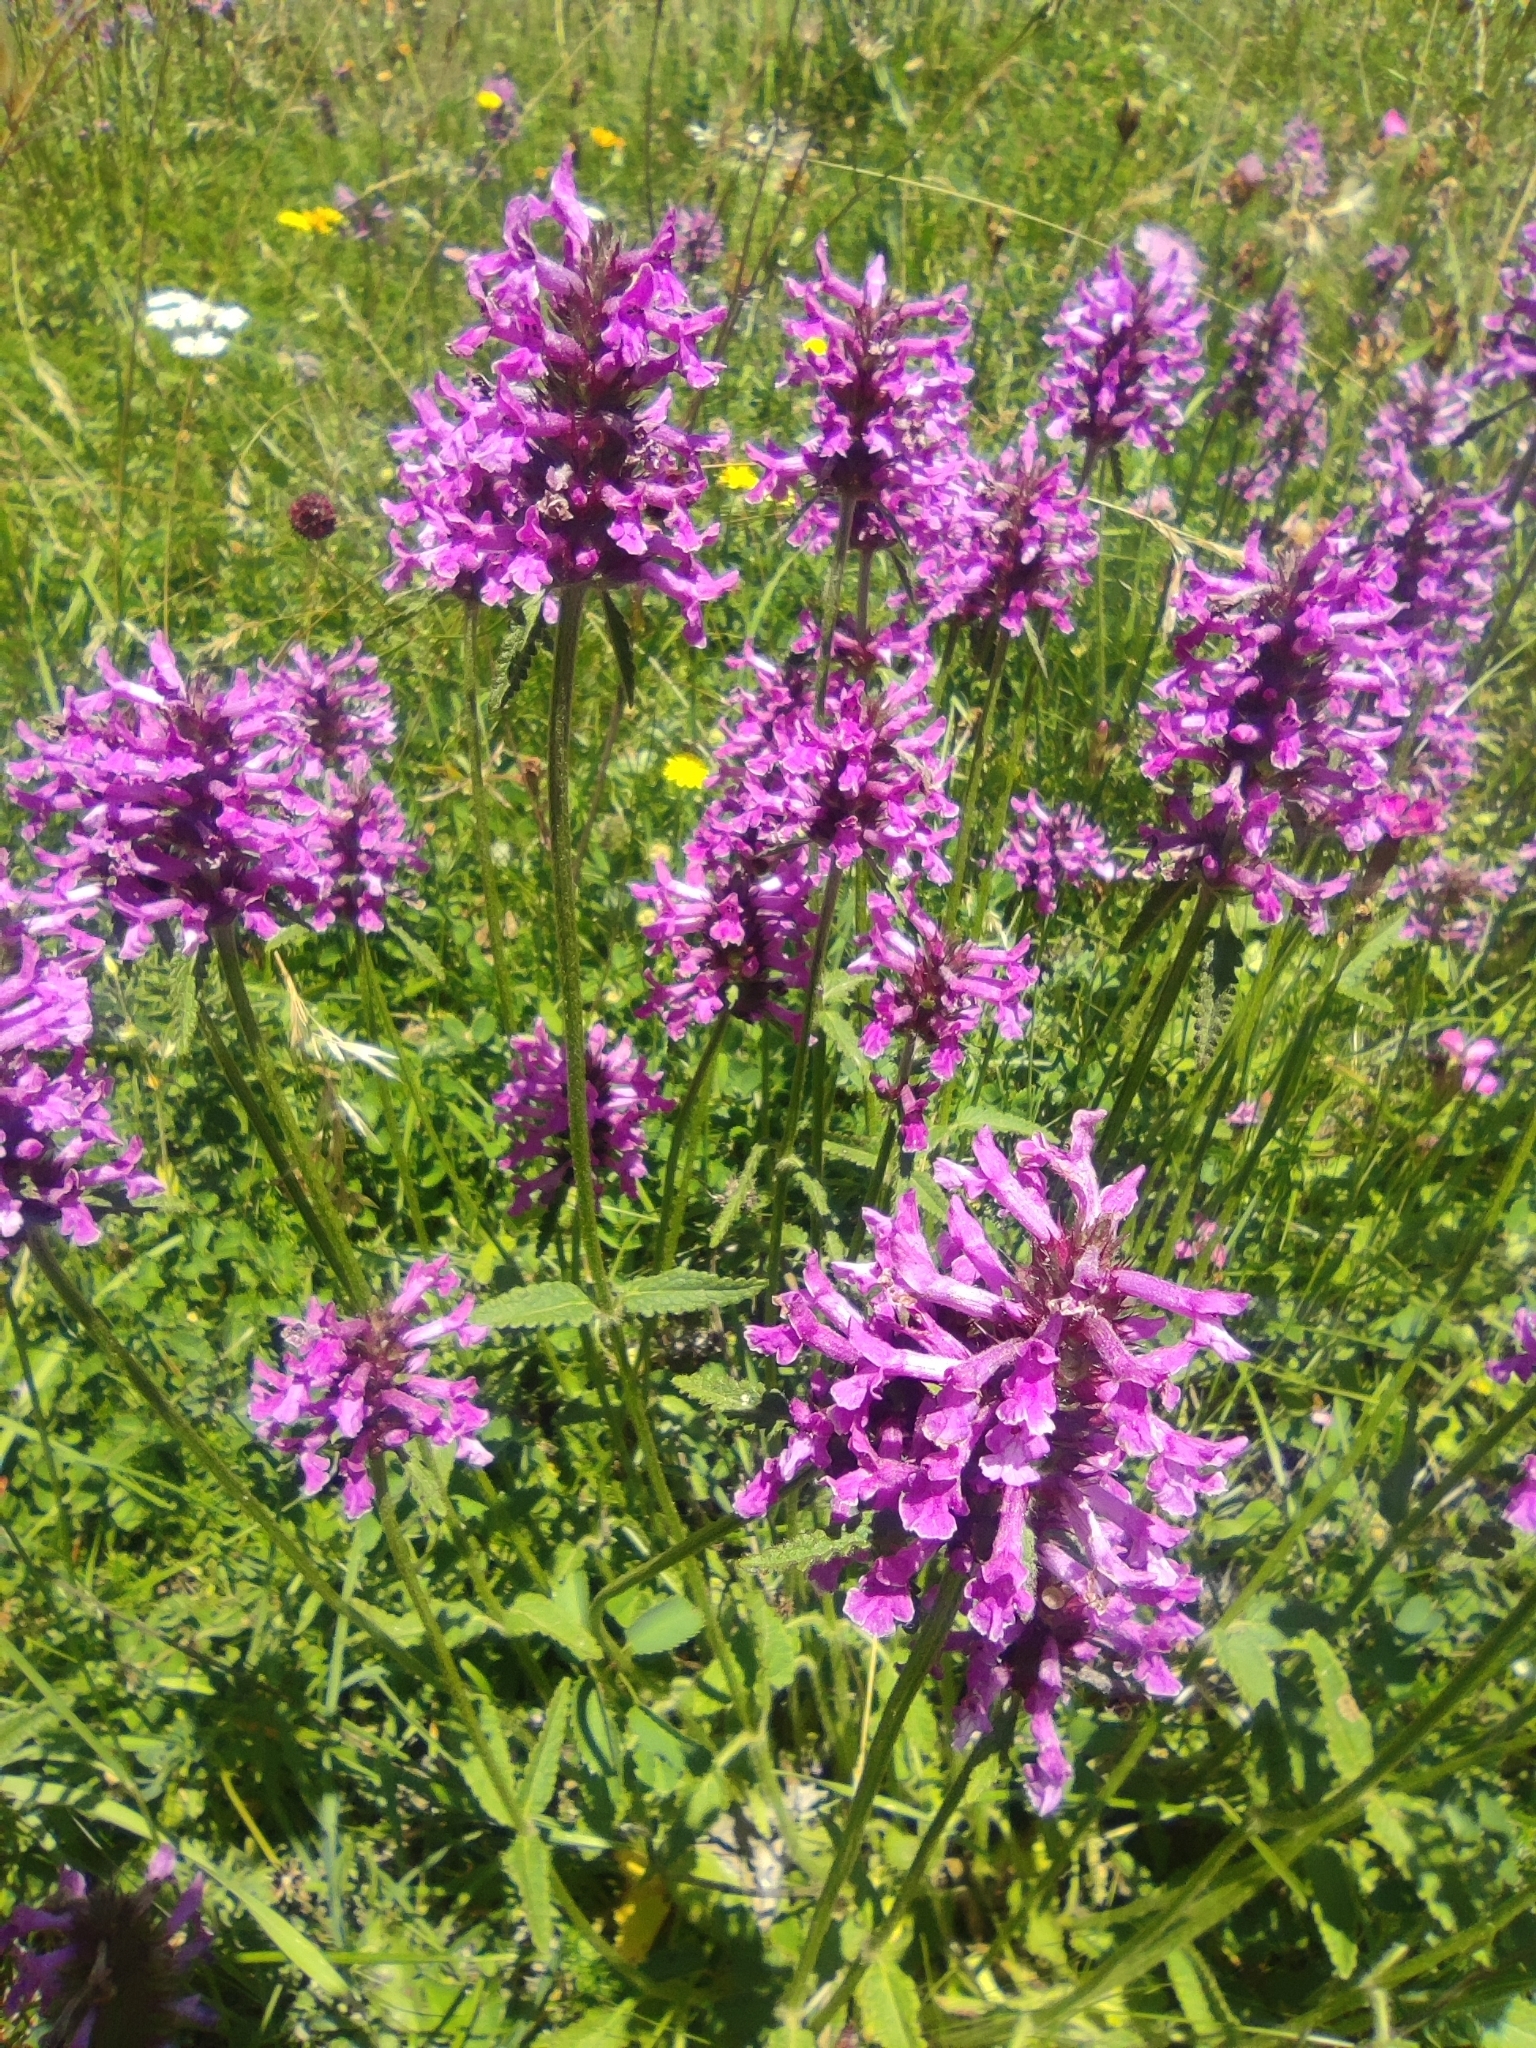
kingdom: Plantae
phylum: Tracheophyta
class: Magnoliopsida
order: Lamiales
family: Lamiaceae
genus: Betonica
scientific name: Betonica officinalis
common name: Bishop's-wort
